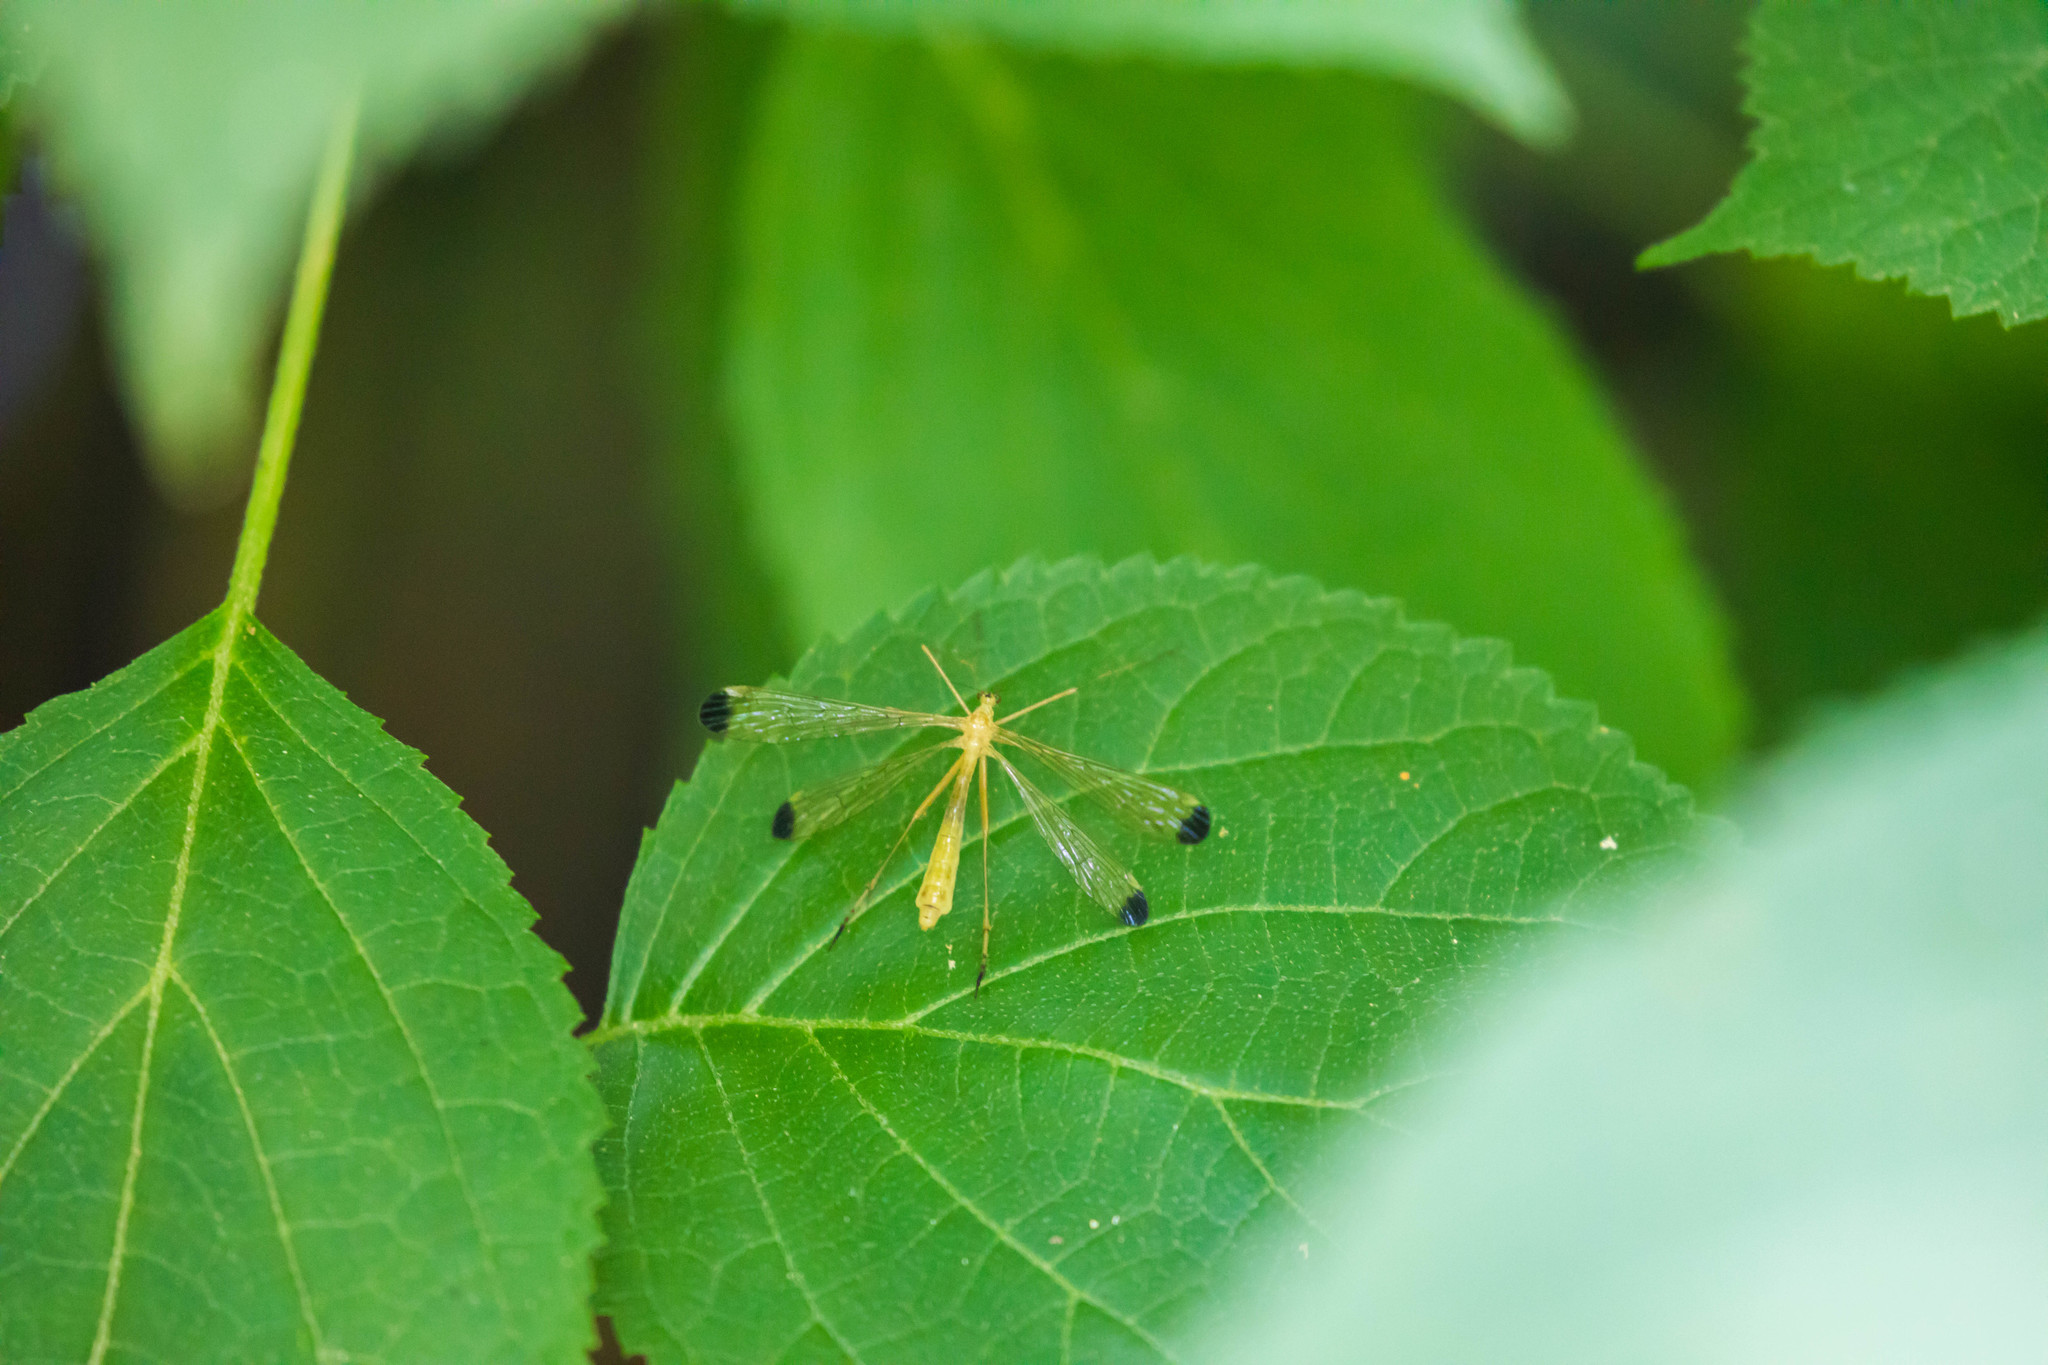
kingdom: Animalia
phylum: Arthropoda
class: Insecta
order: Mecoptera
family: Bittacidae
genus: Hylobittacus
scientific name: Hylobittacus apicalis
